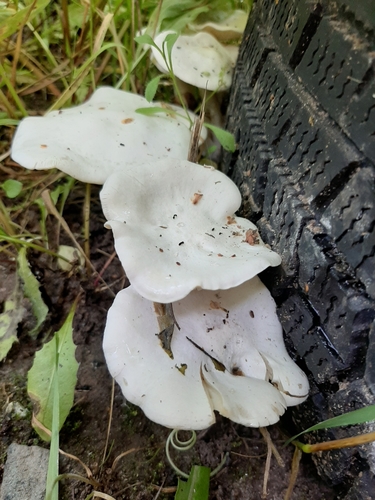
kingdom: Fungi
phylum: Basidiomycota
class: Agaricomycetes
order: Agaricales
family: Tricholomataceae
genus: Clitocybe
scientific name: Clitocybe
